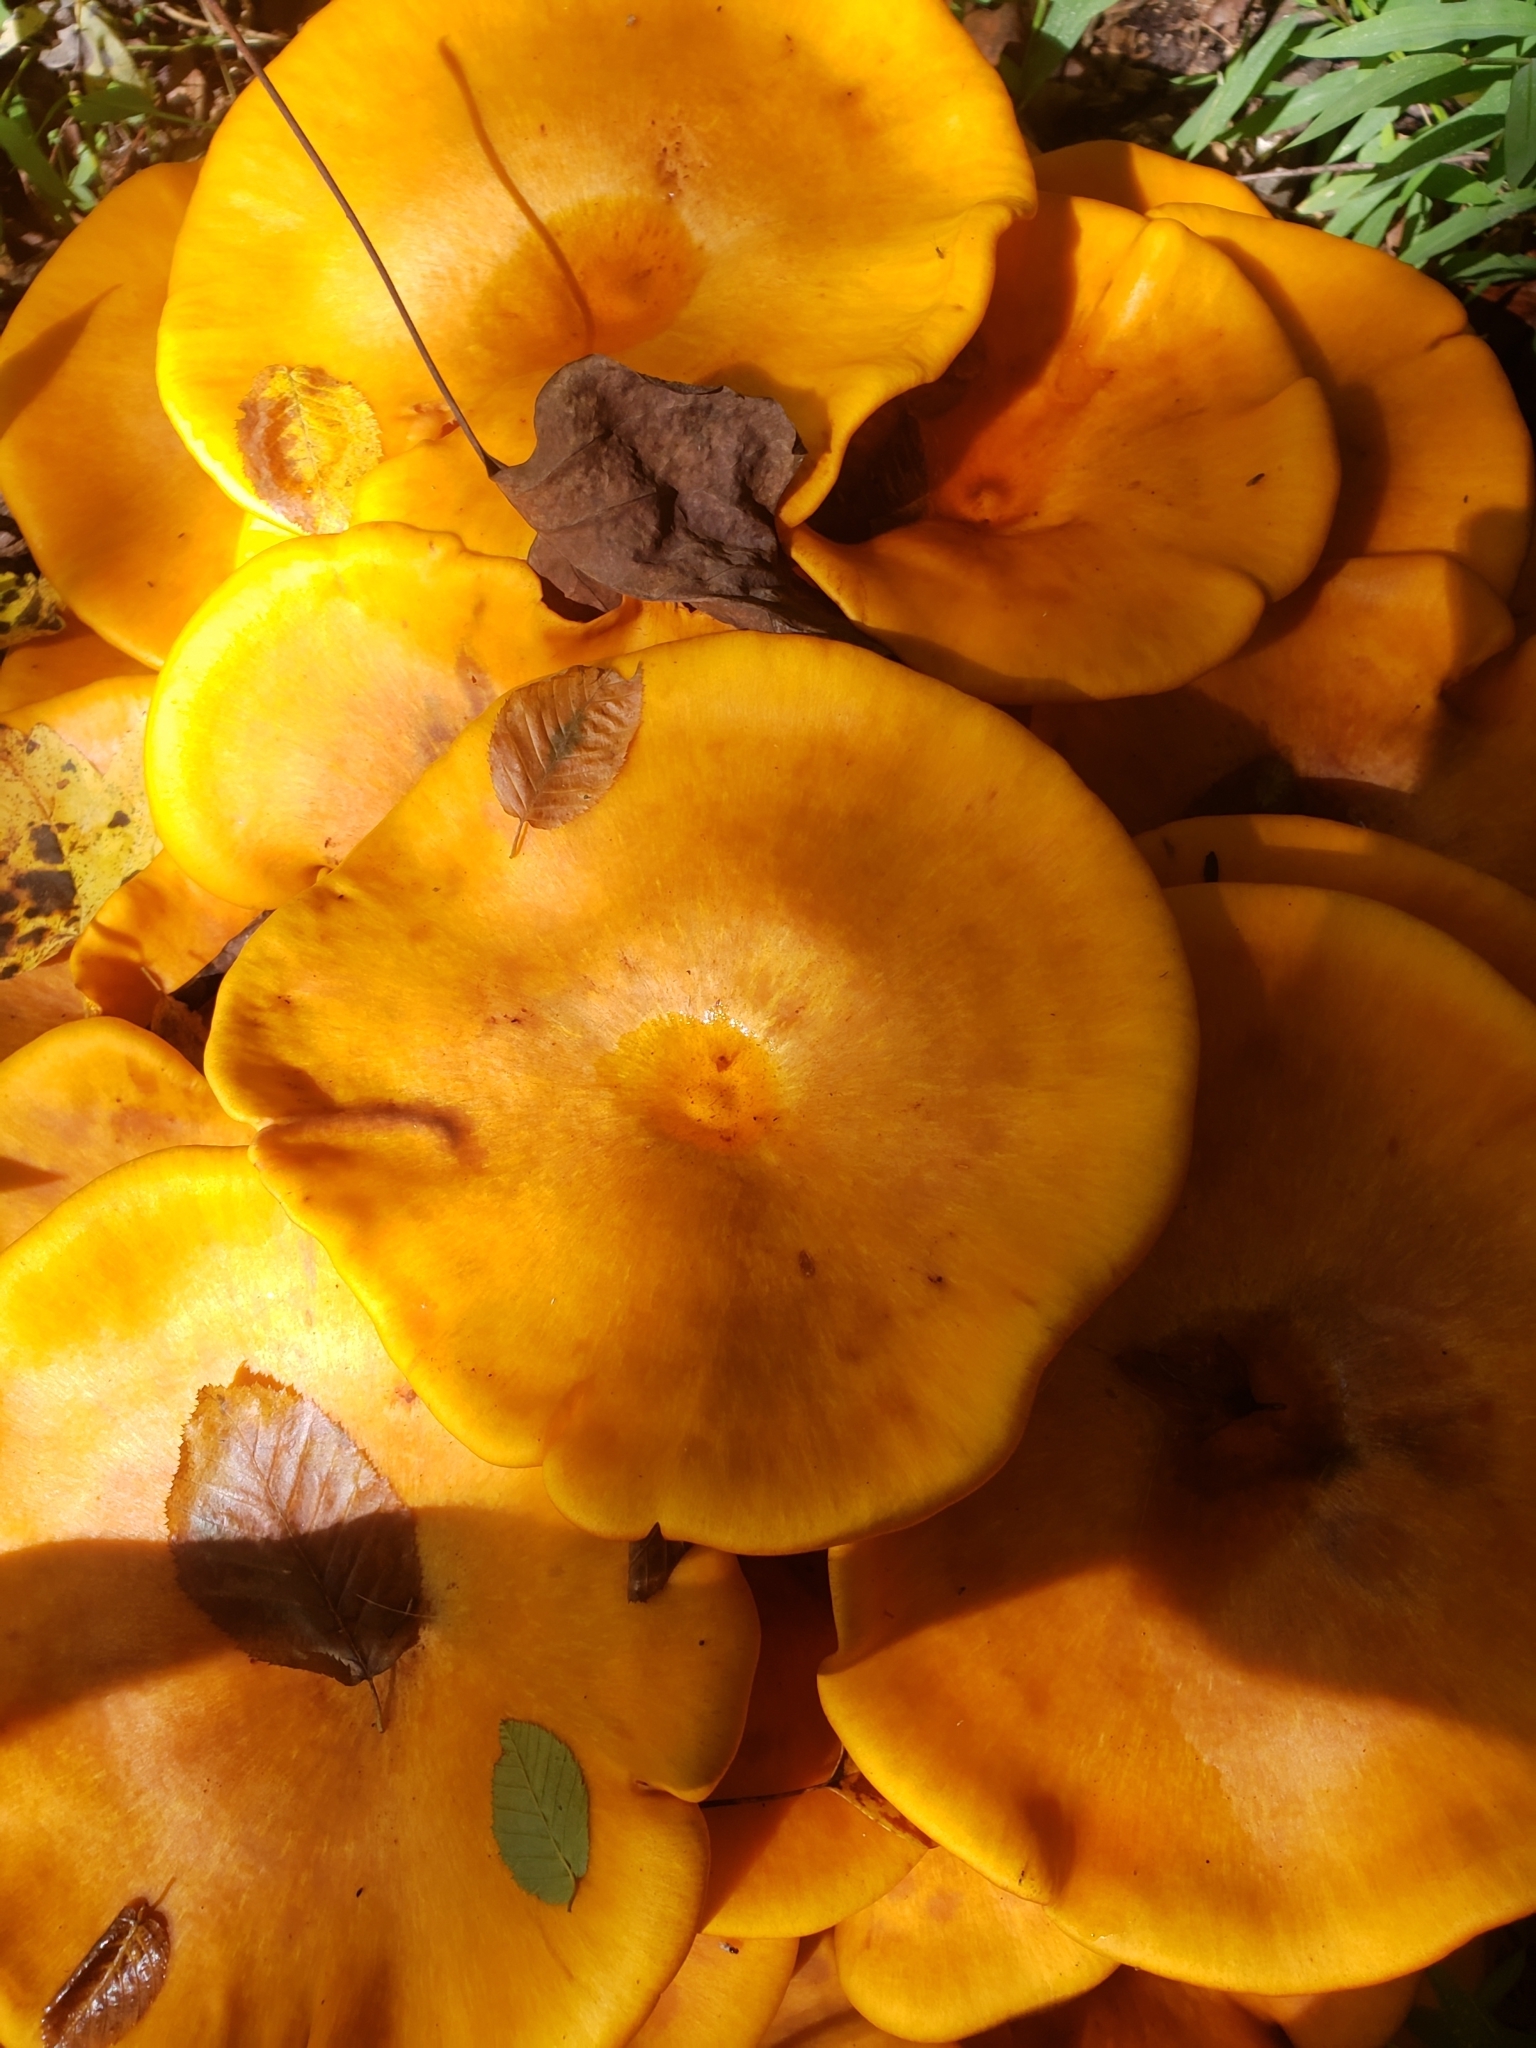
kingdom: Fungi
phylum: Basidiomycota
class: Agaricomycetes
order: Agaricales
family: Omphalotaceae
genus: Omphalotus
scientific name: Omphalotus illudens
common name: Jack o lantern
